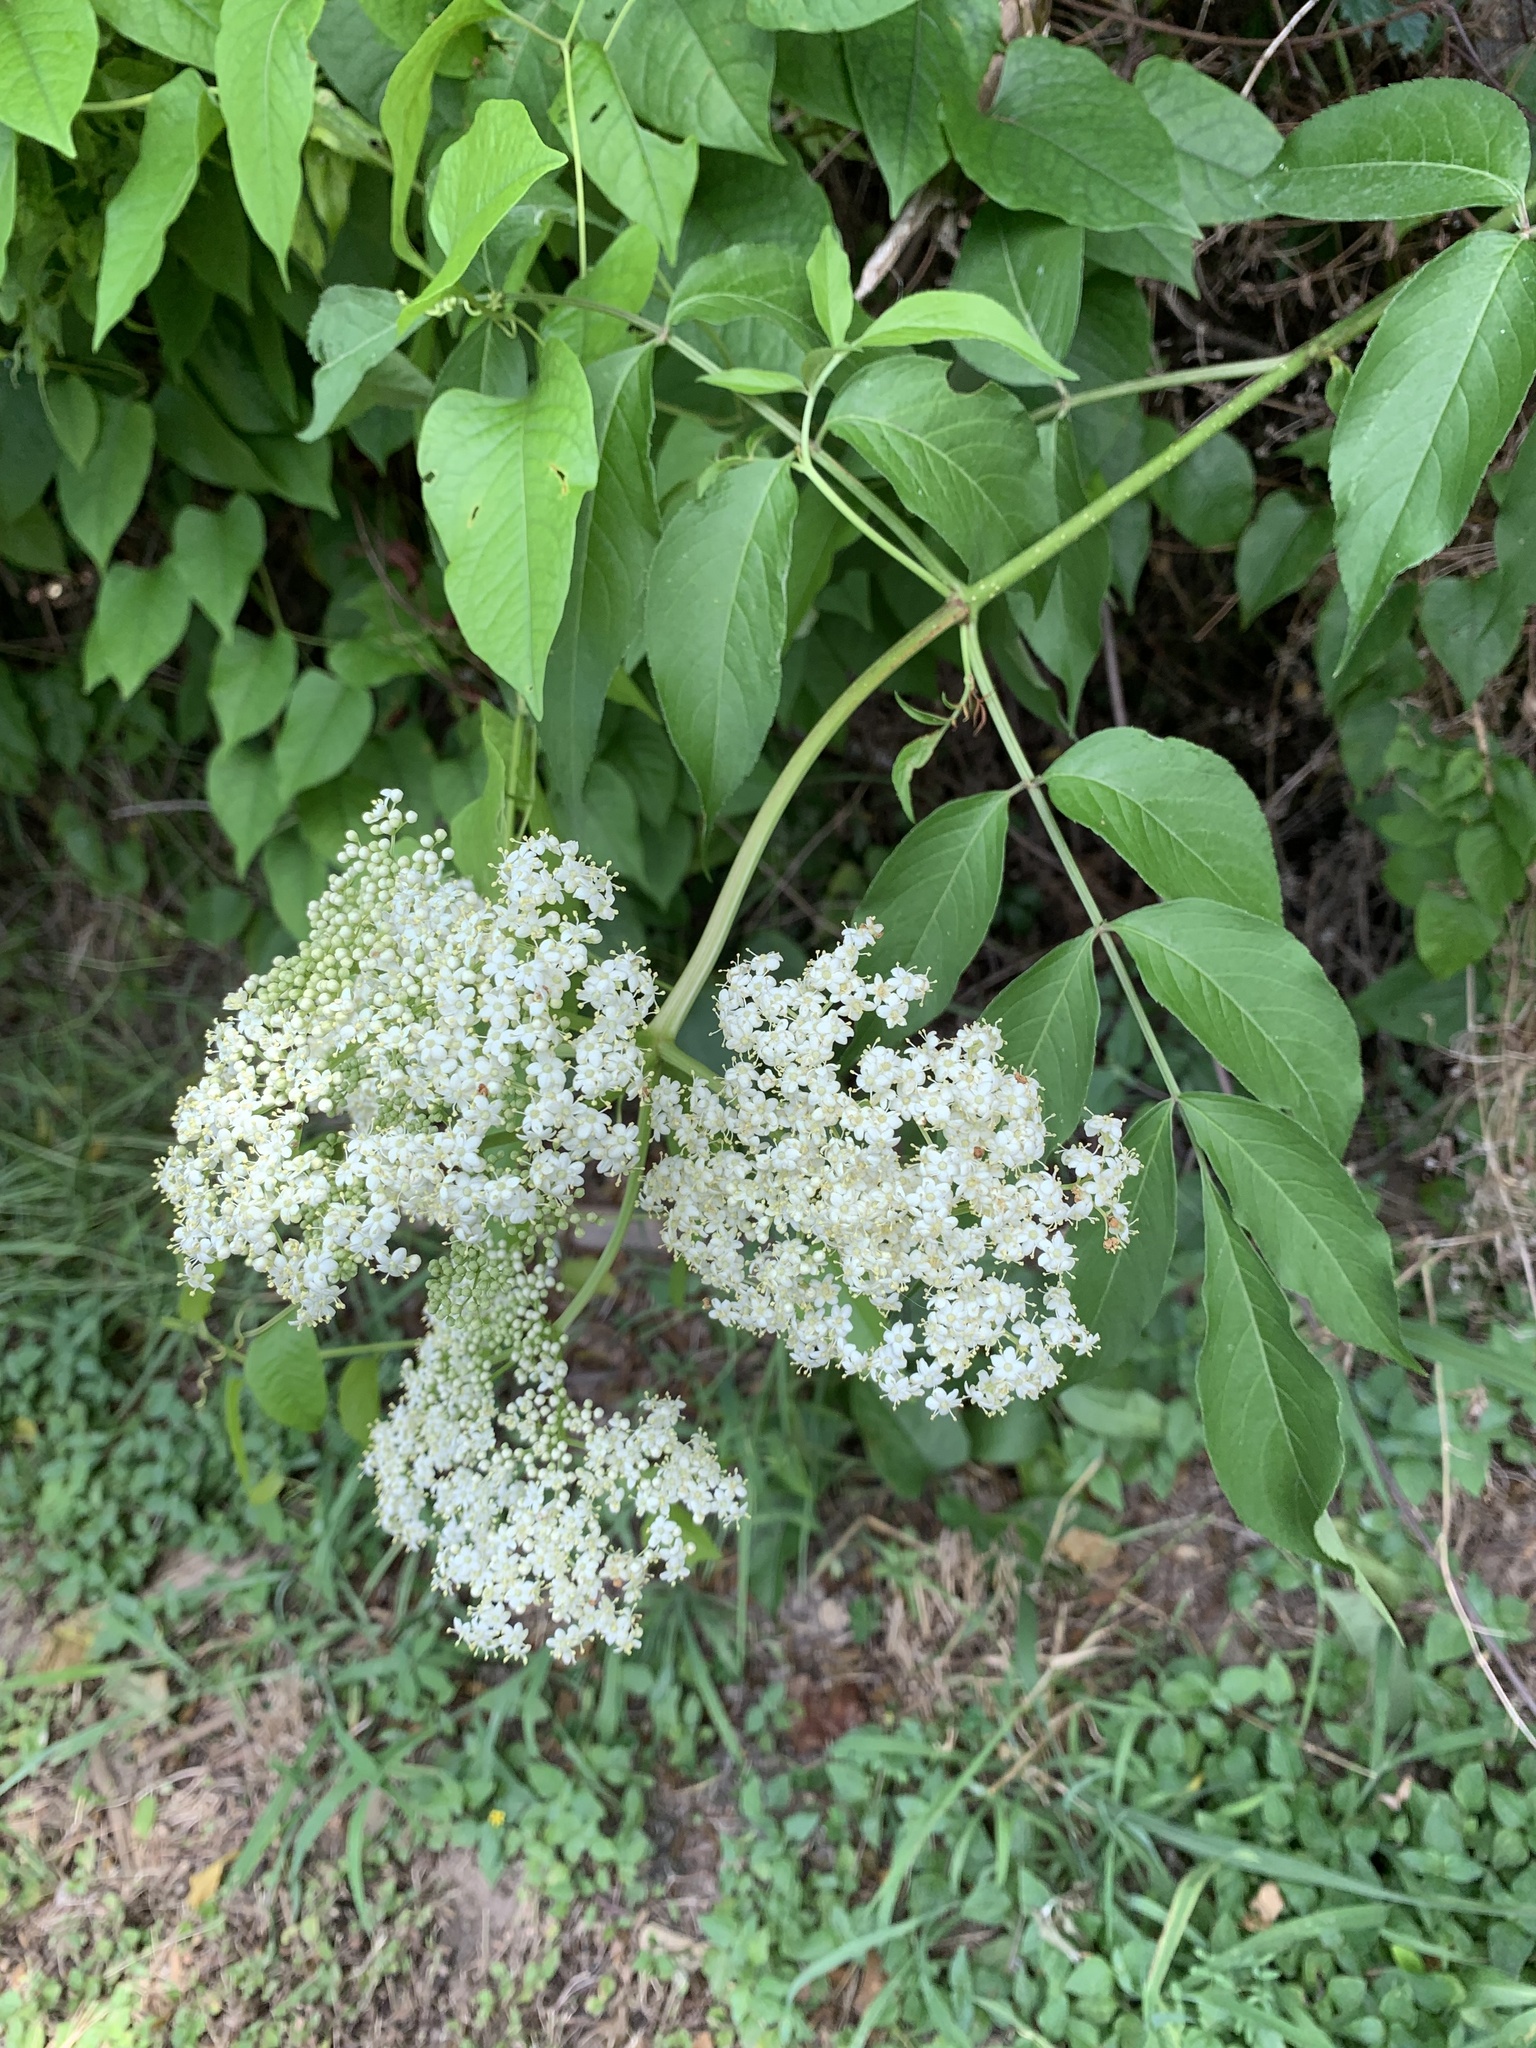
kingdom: Plantae
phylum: Tracheophyta
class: Magnoliopsida
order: Dipsacales
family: Viburnaceae
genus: Sambucus
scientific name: Sambucus canadensis
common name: American elder
